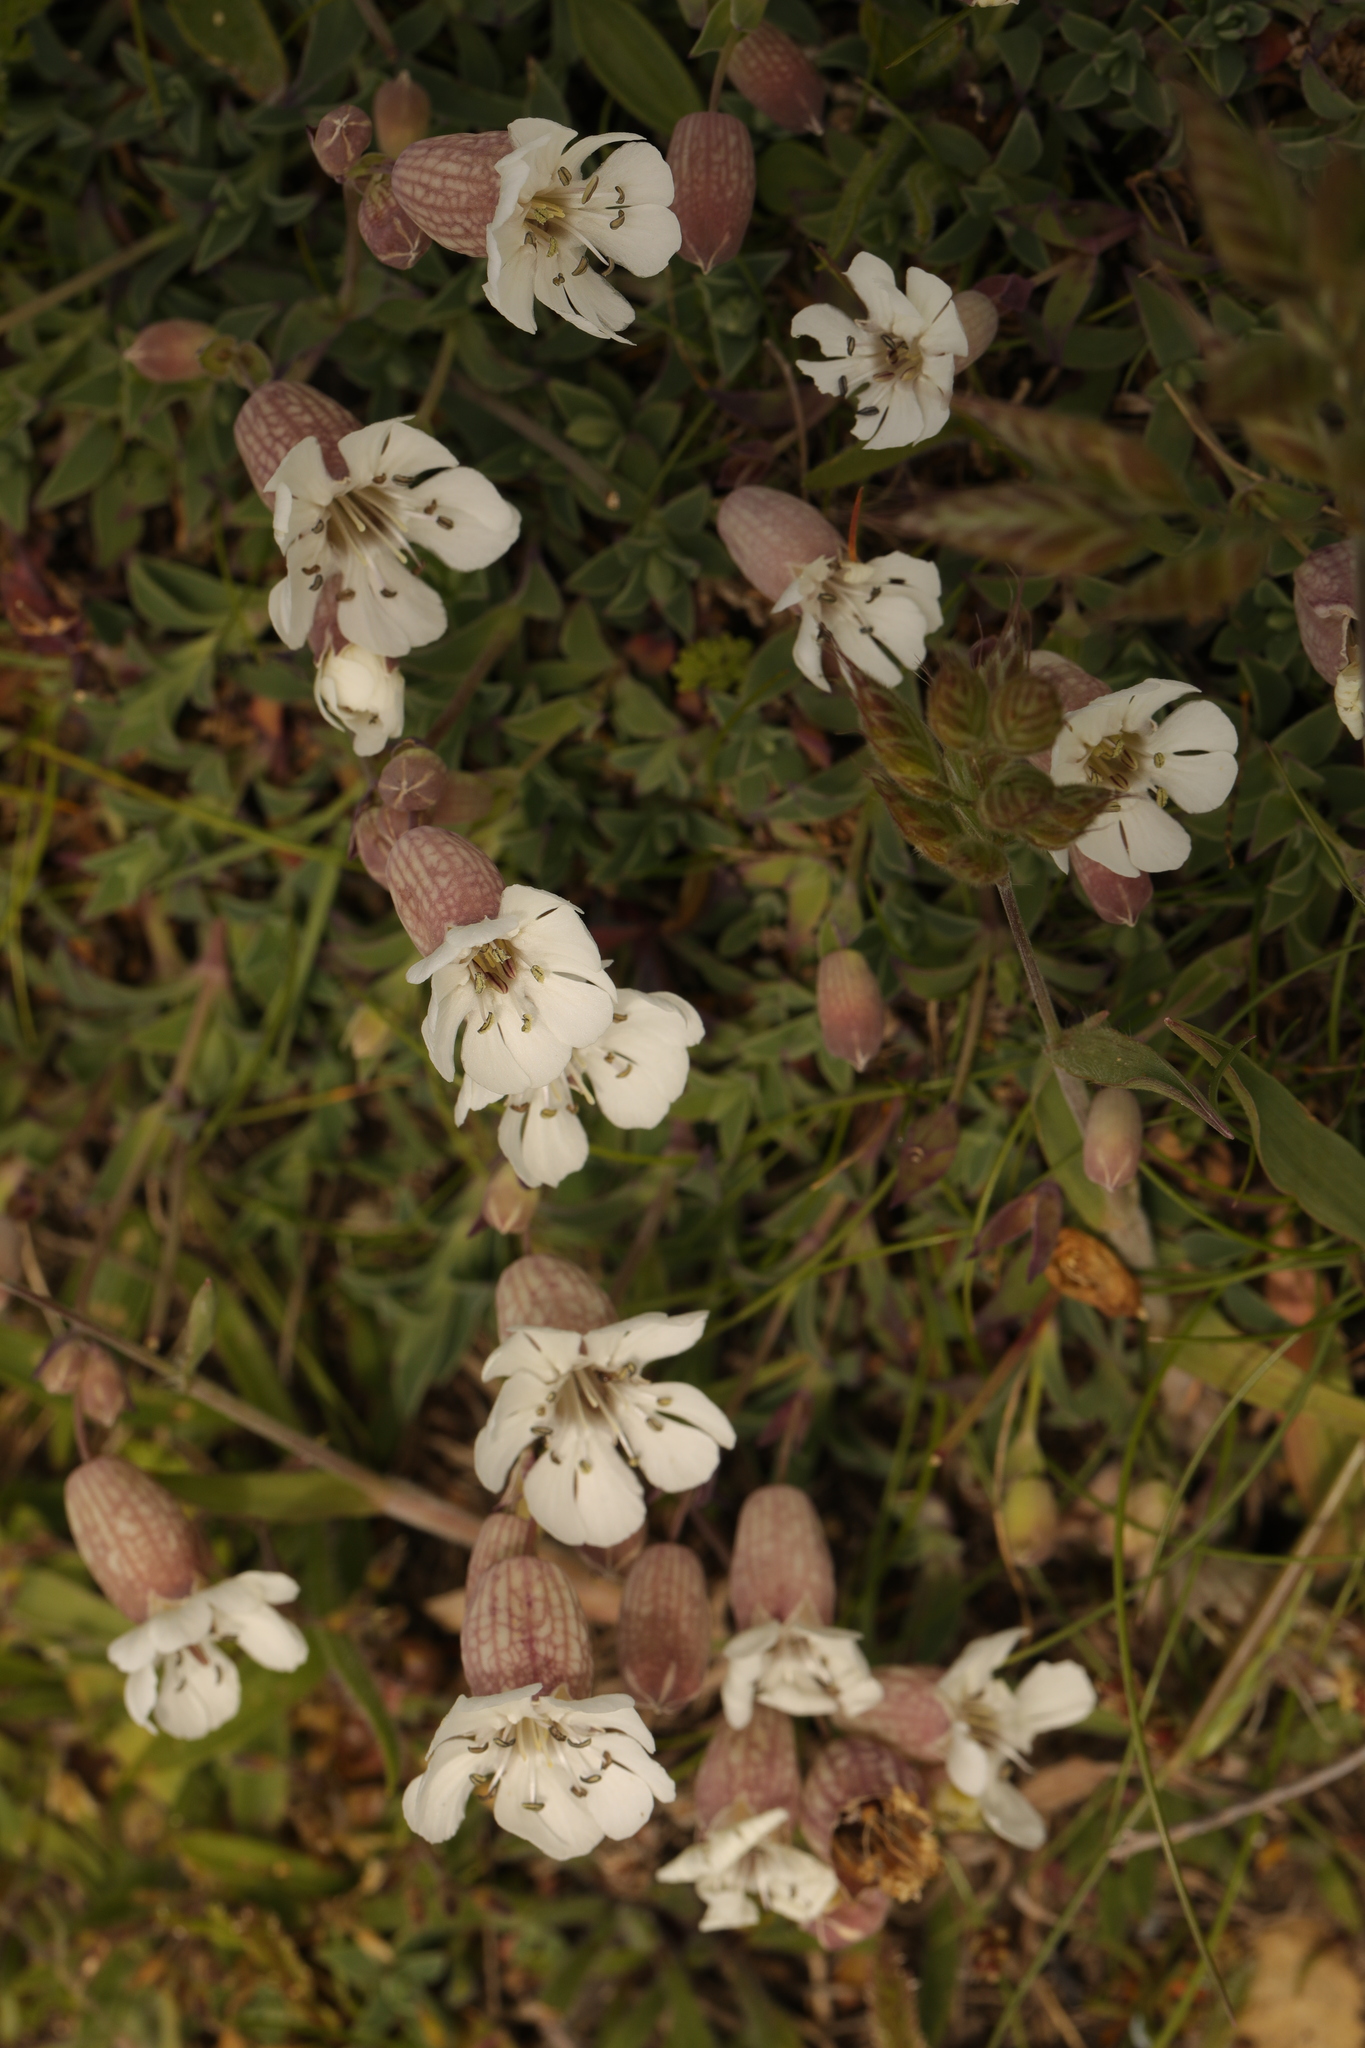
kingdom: Plantae
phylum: Tracheophyta
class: Magnoliopsida
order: Caryophyllales
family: Caryophyllaceae
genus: Silene
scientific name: Silene uniflora
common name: Sea campion
